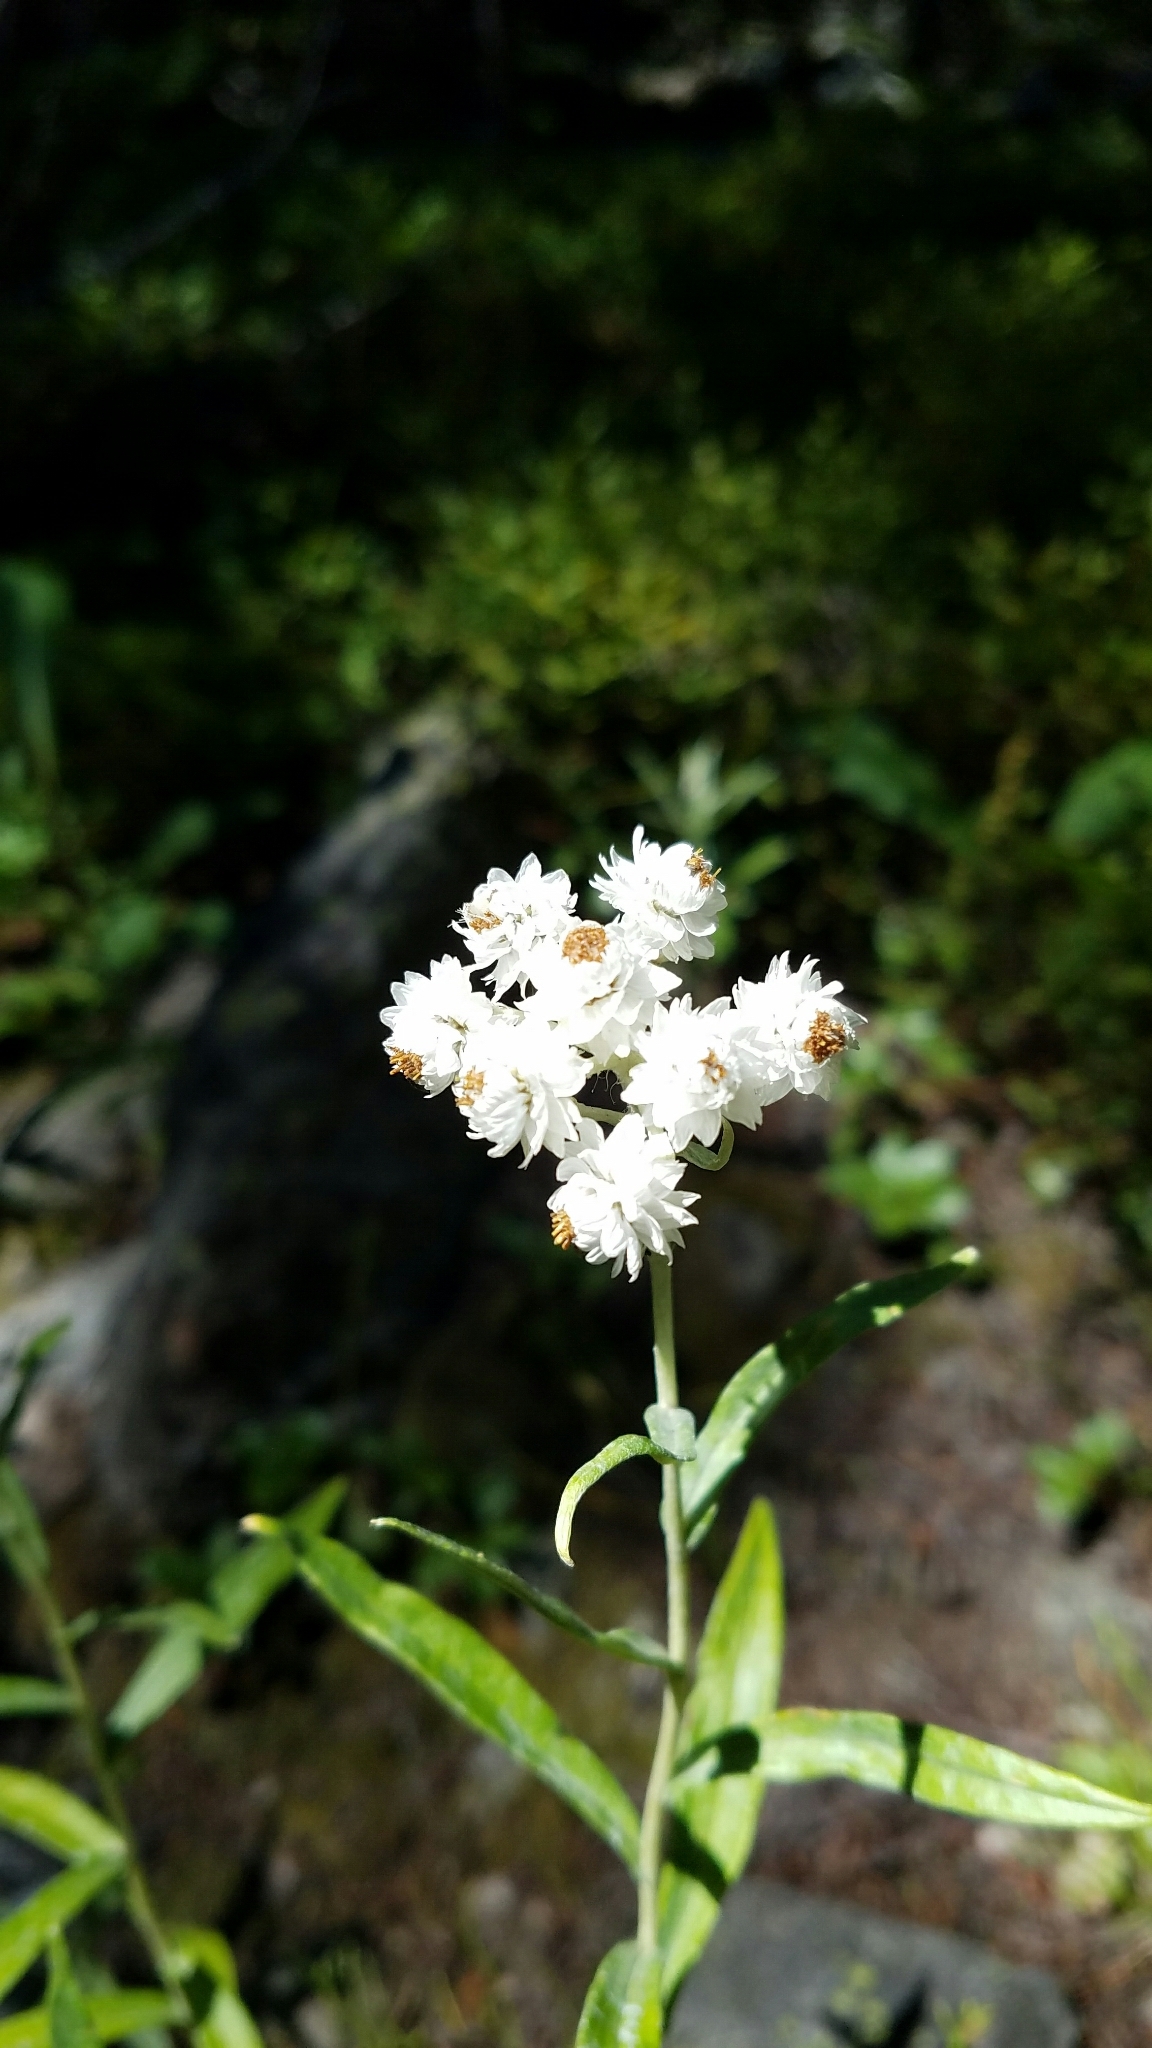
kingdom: Plantae
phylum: Tracheophyta
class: Magnoliopsida
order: Asterales
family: Asteraceae
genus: Anaphalis
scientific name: Anaphalis margaritacea
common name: Pearly everlasting
